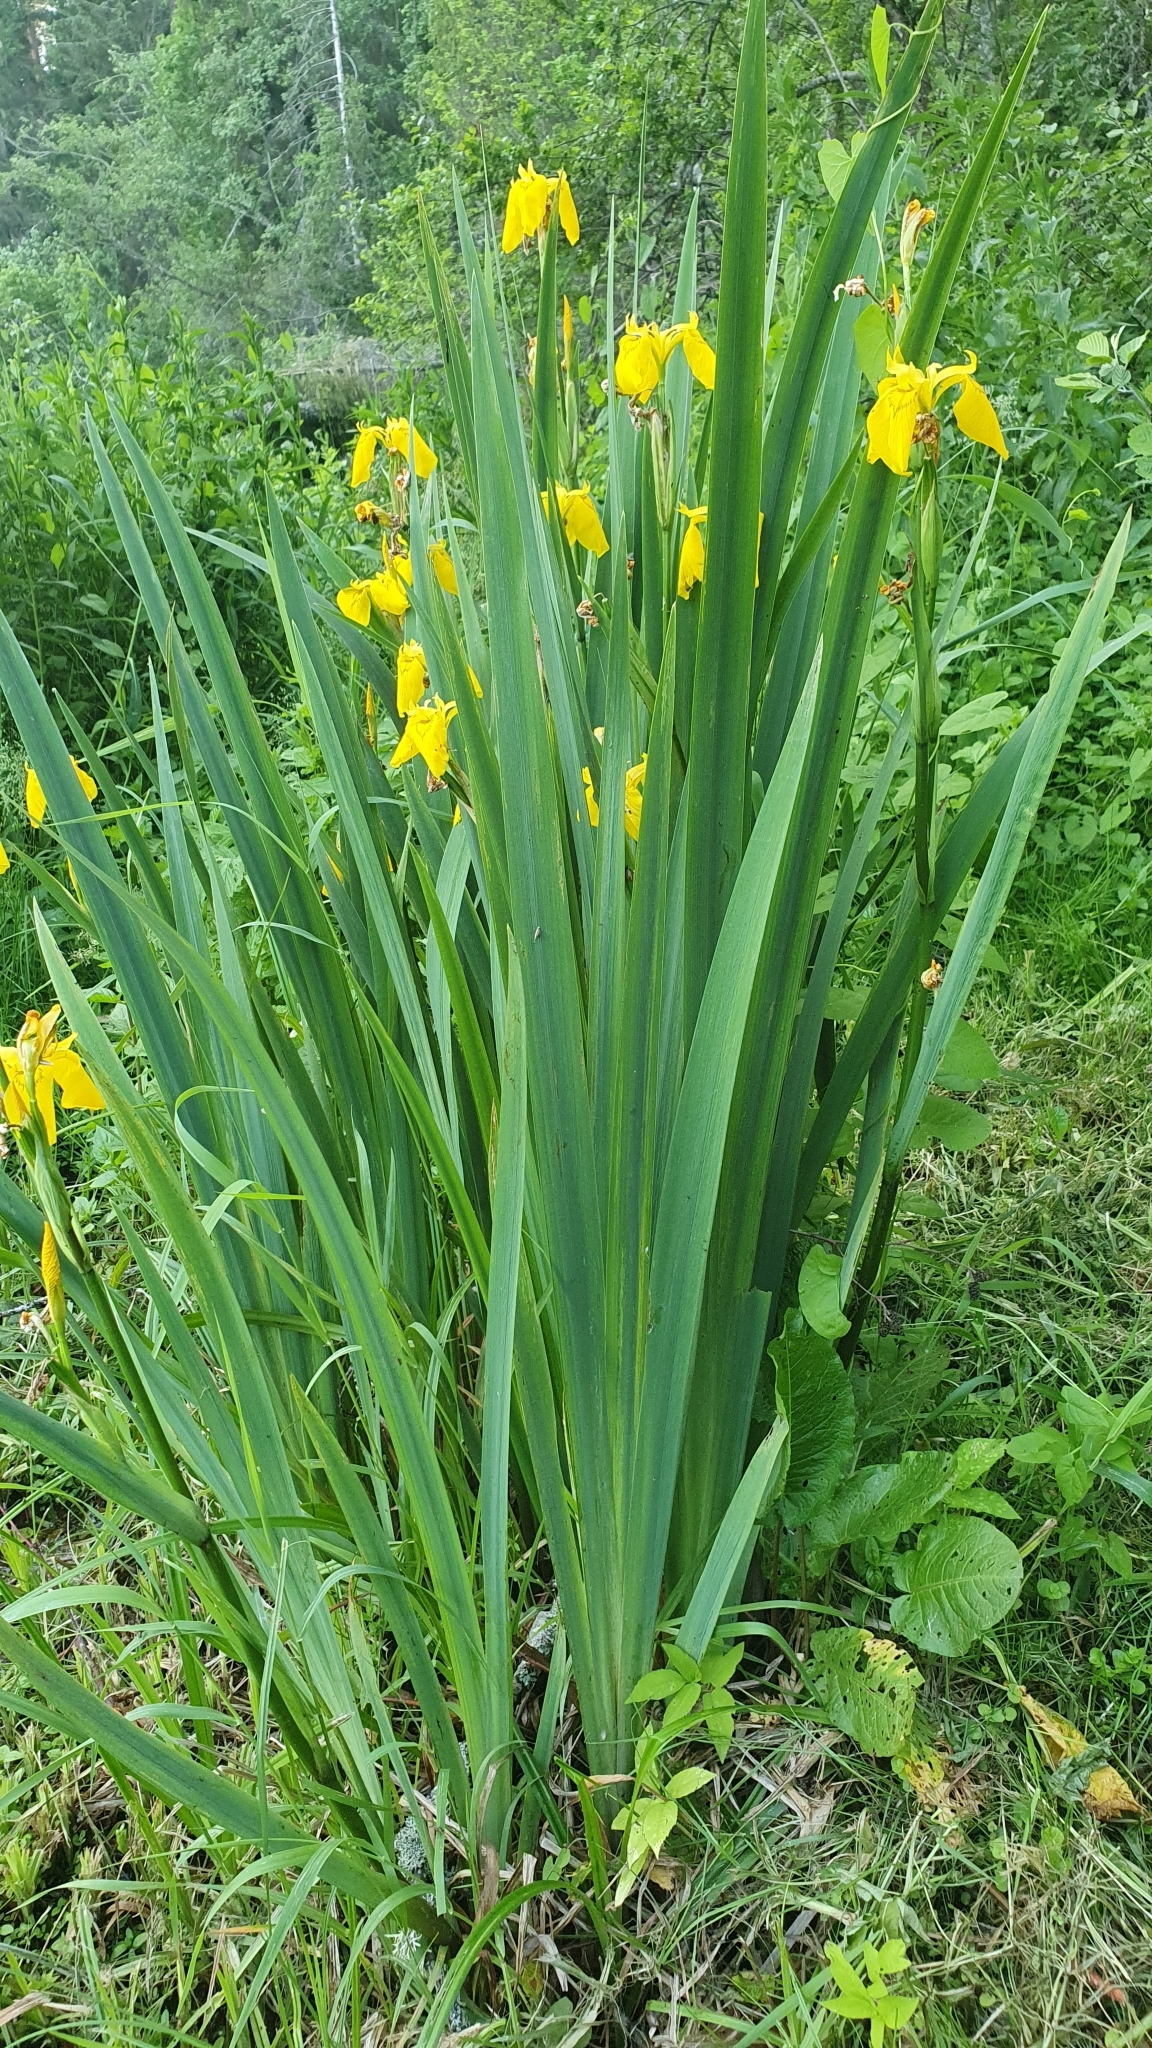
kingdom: Plantae
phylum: Tracheophyta
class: Liliopsida
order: Asparagales
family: Iridaceae
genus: Iris
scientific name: Iris pseudacorus
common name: Yellow flag
